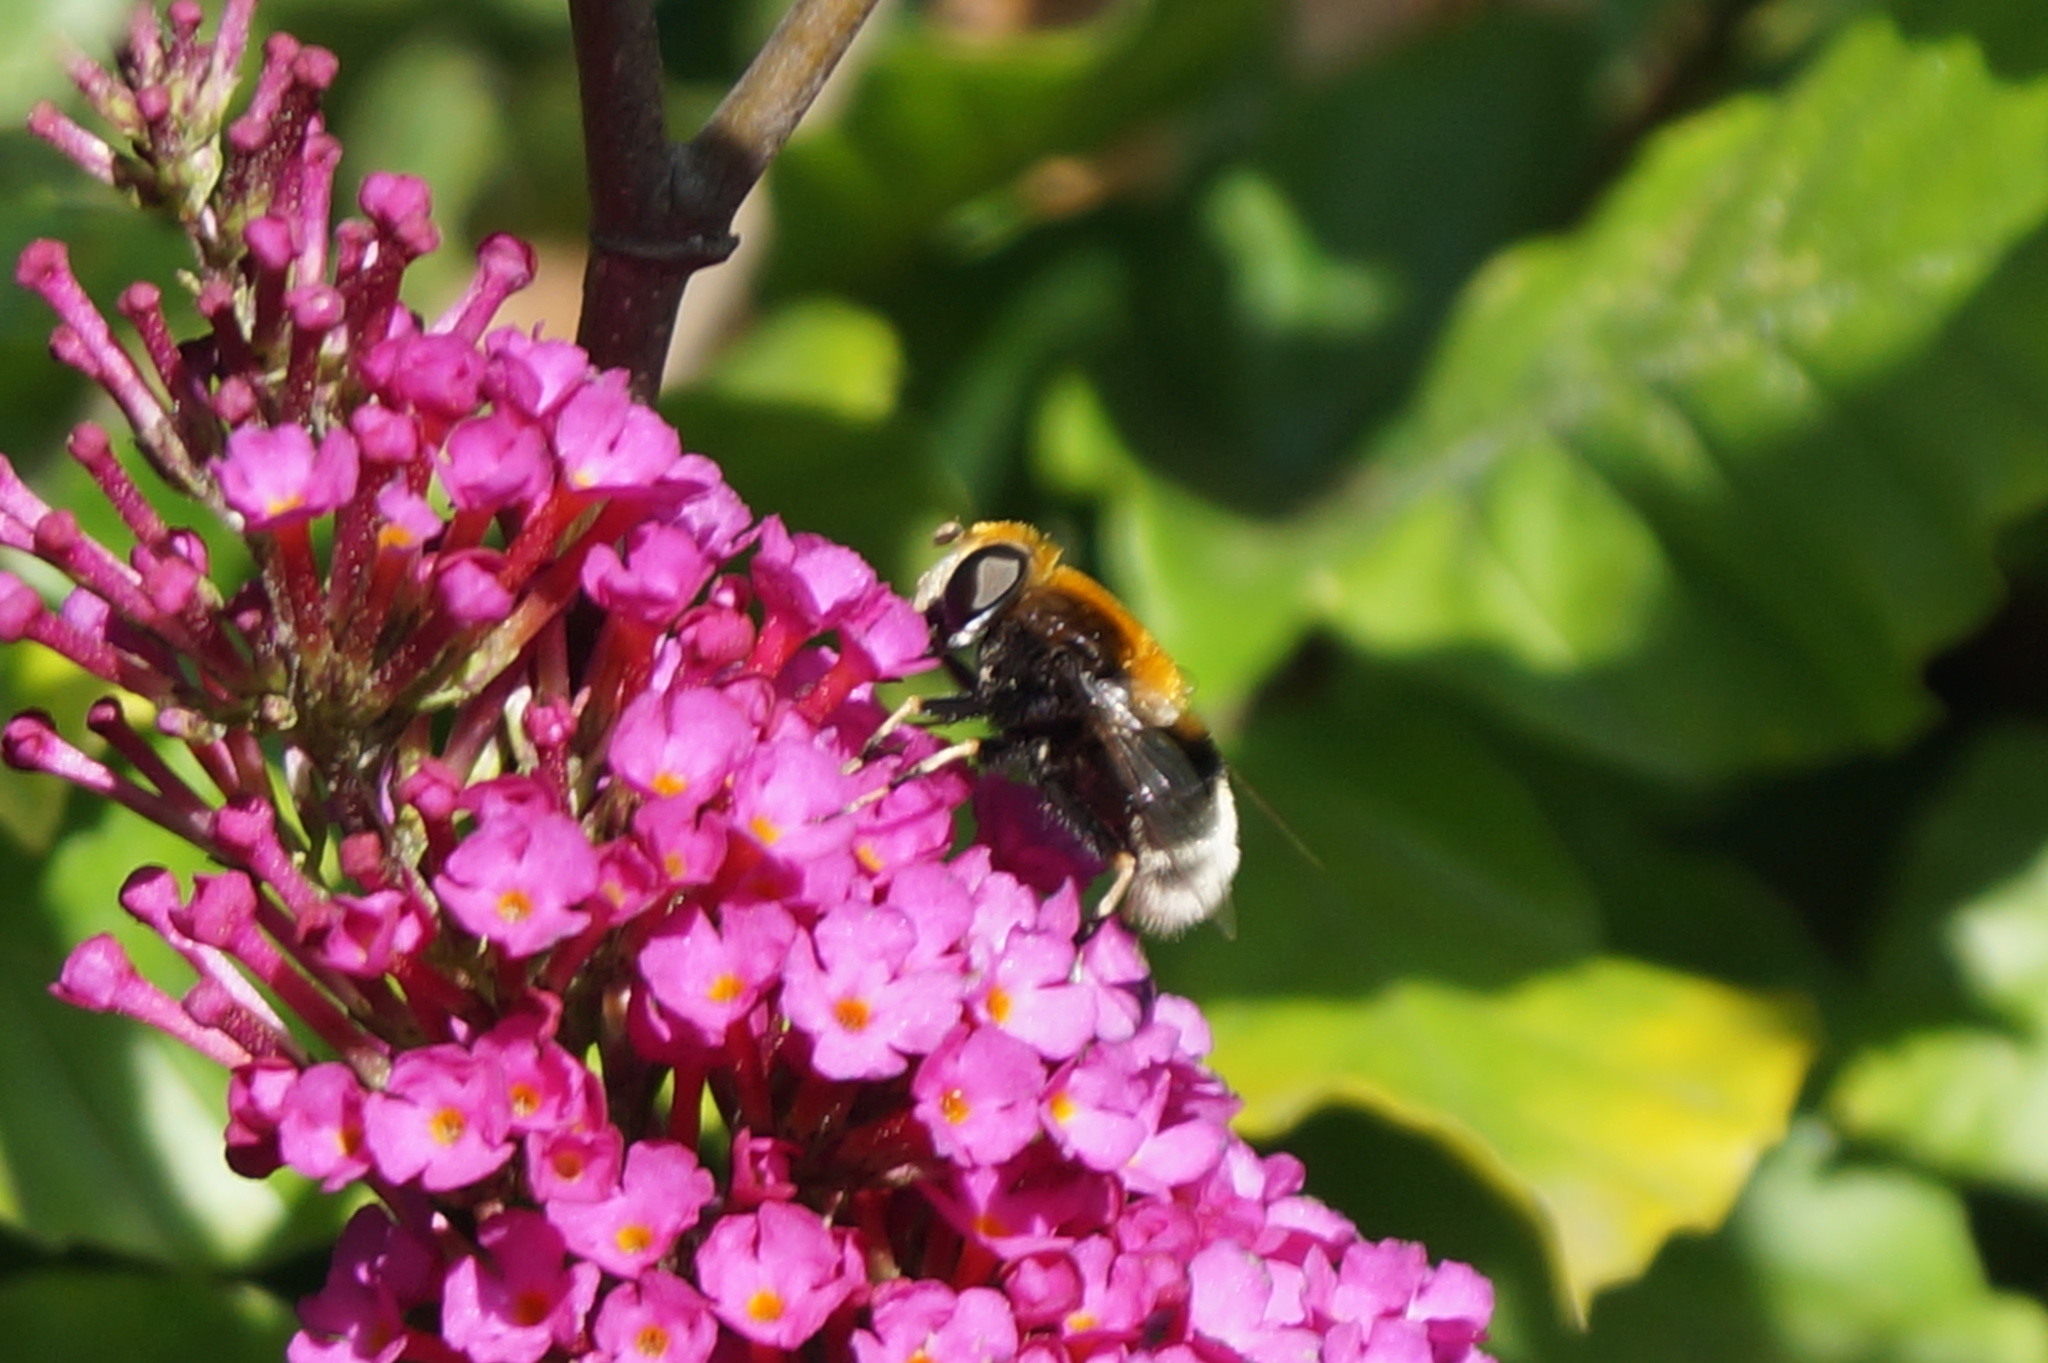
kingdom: Animalia
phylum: Arthropoda
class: Insecta
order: Diptera
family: Syrphidae
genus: Eristalis
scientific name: Eristalis intricaria
